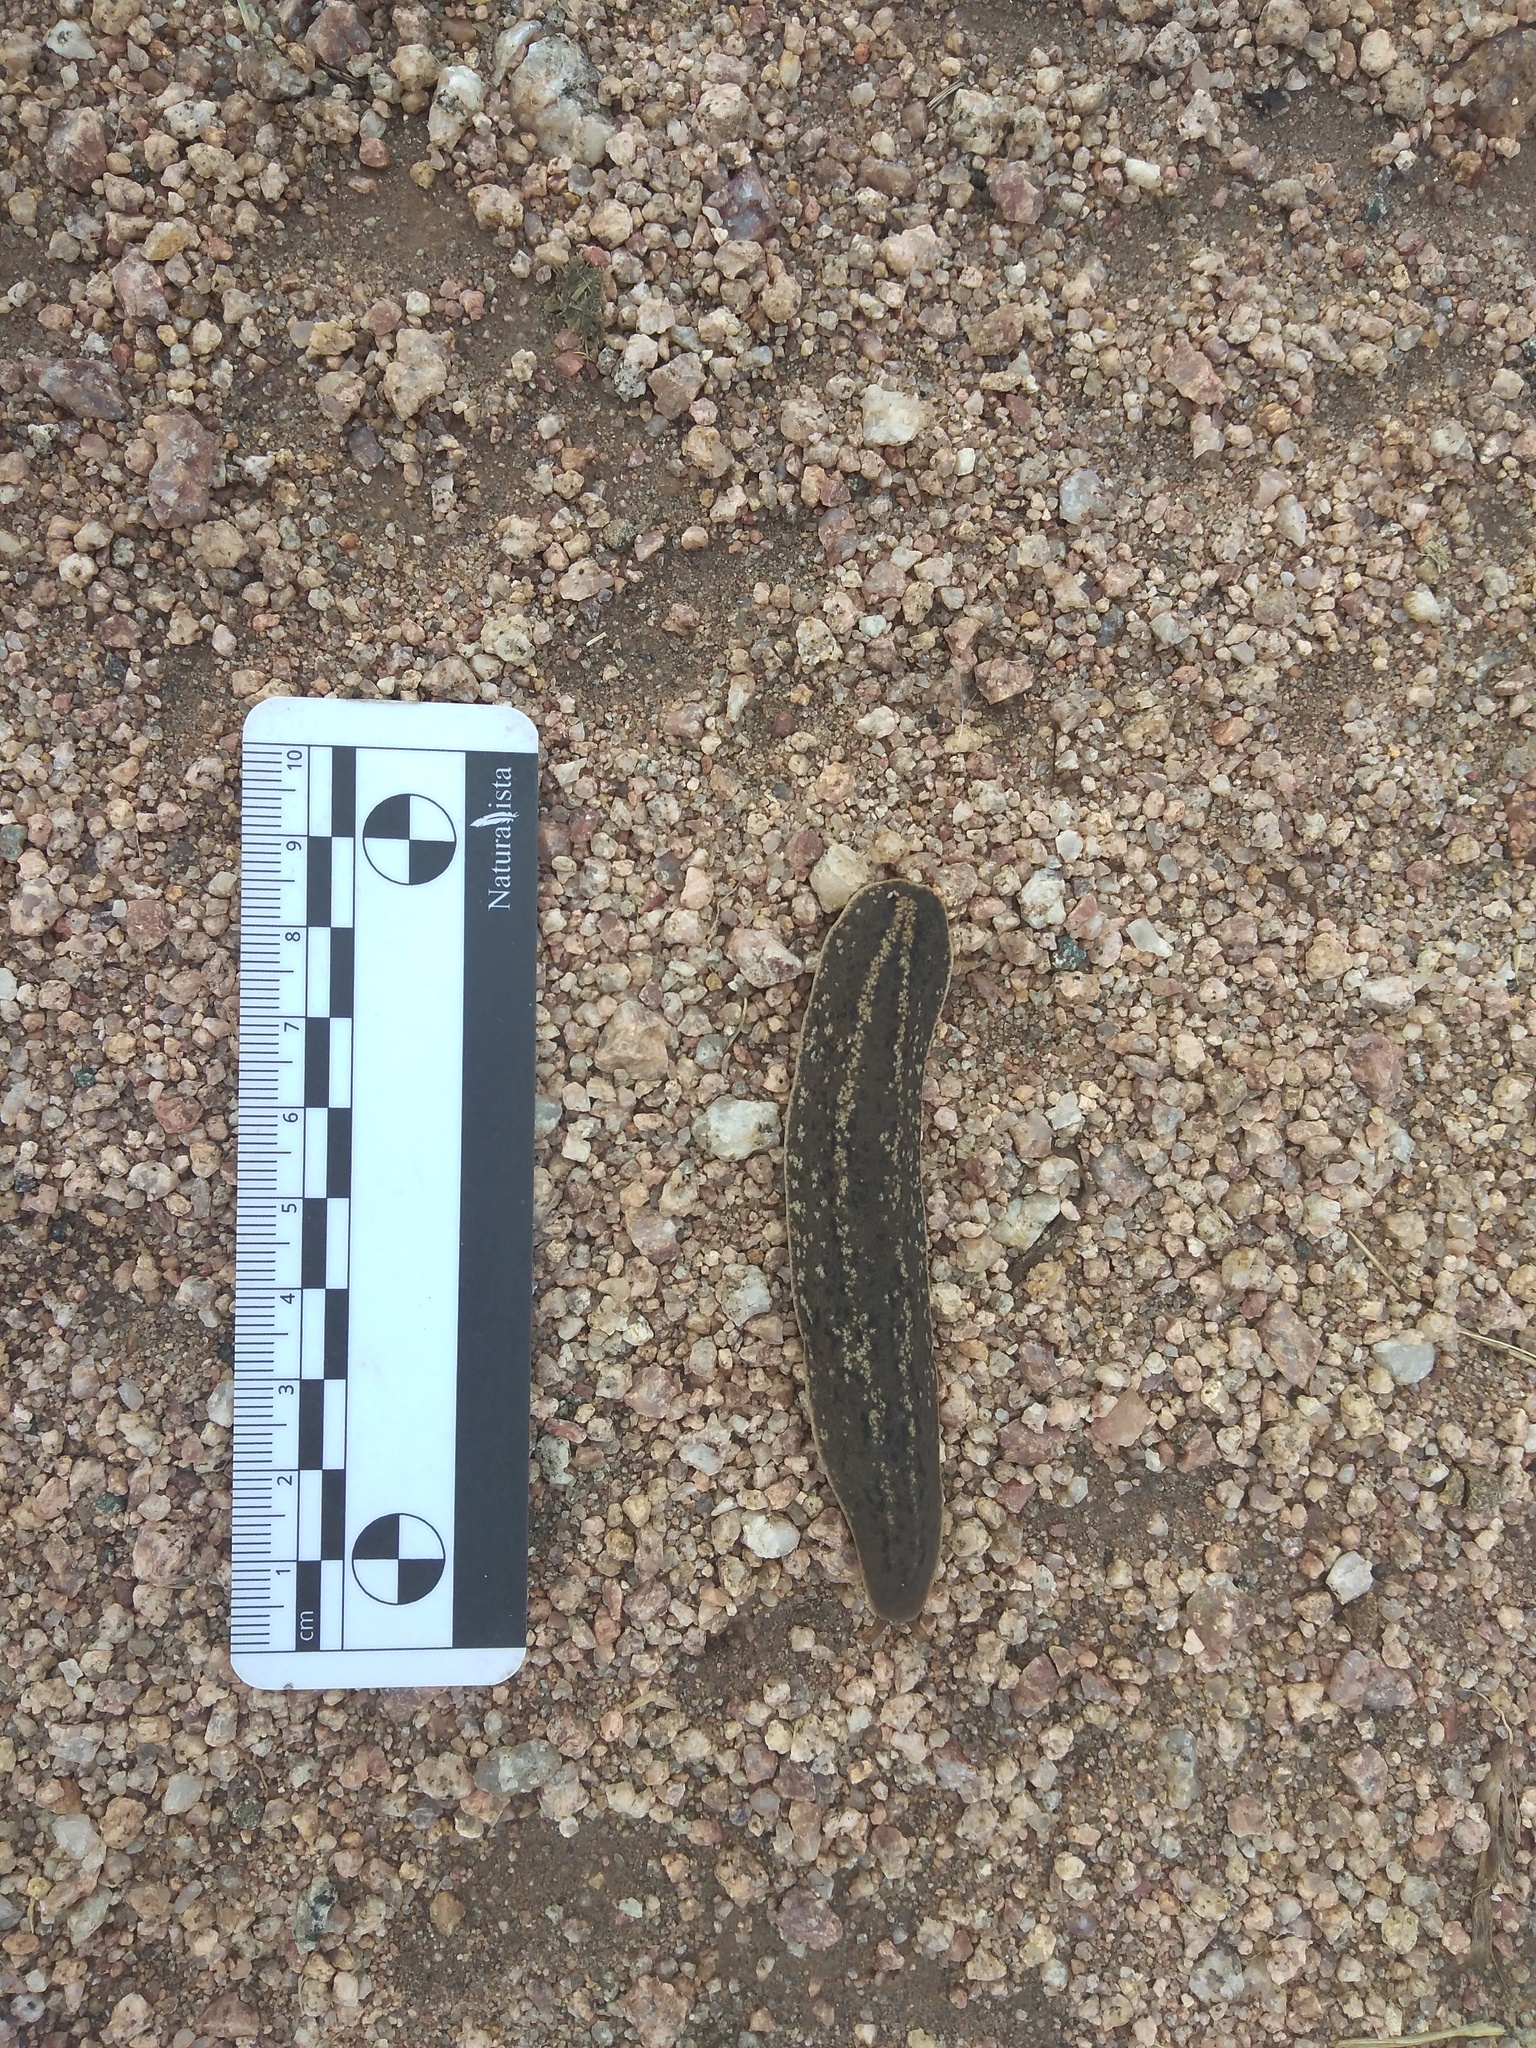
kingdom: Animalia
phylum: Mollusca
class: Gastropoda
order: Systellommatophora
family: Veronicellidae
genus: Phyllocaulis
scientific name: Phyllocaulis soleiformis
